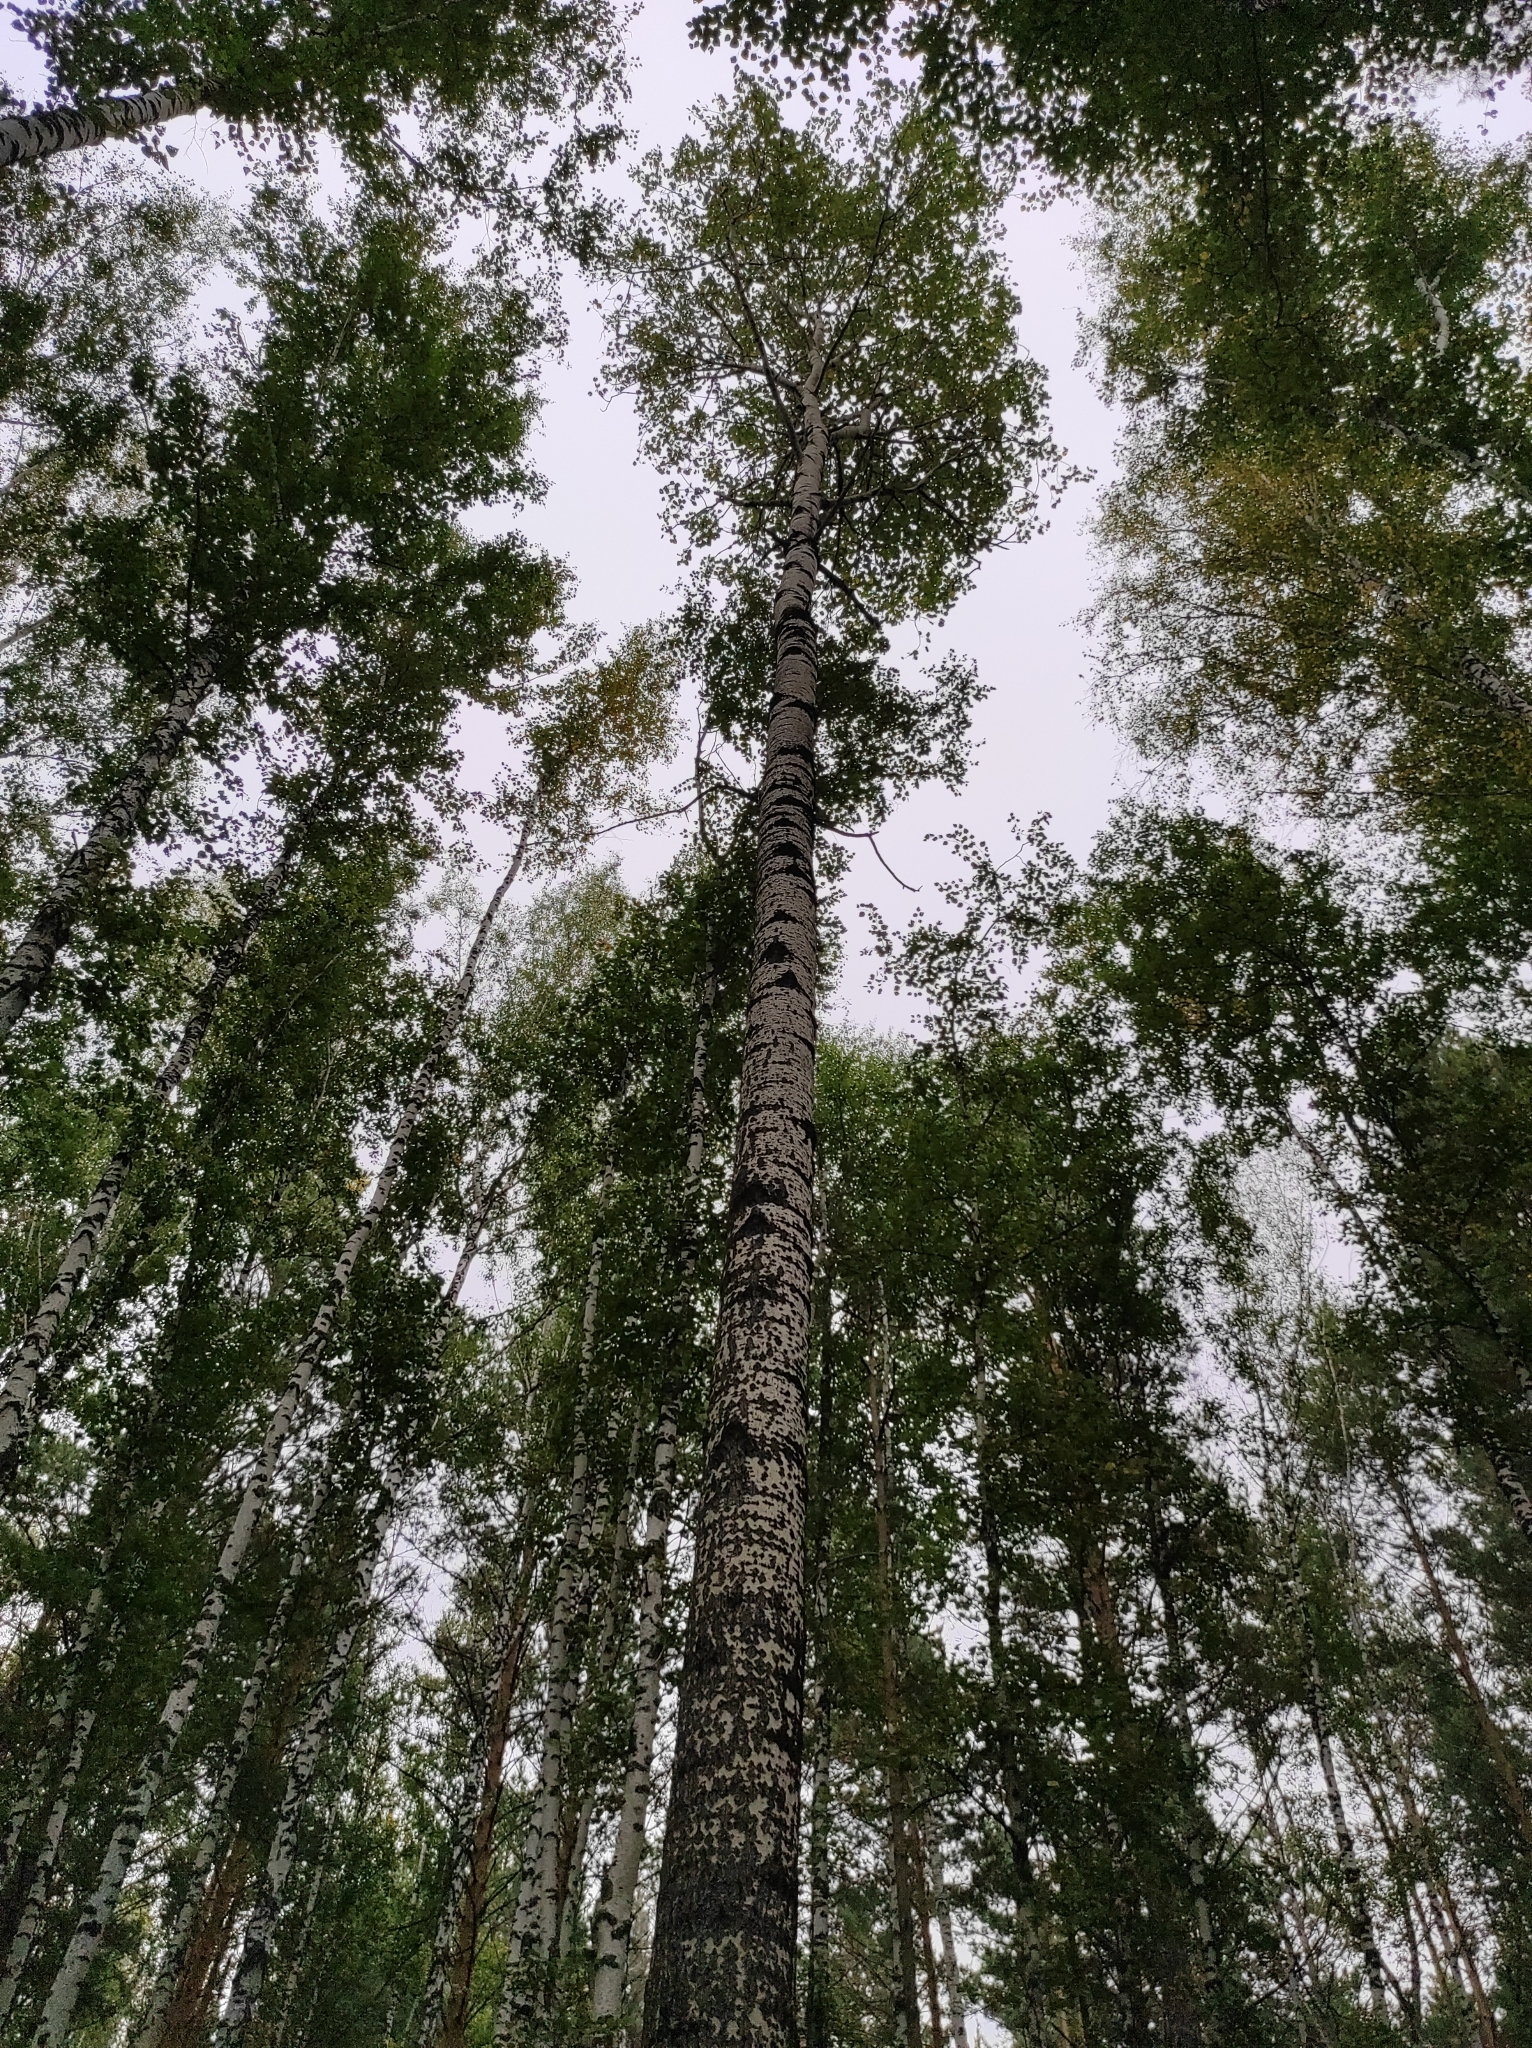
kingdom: Plantae
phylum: Tracheophyta
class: Magnoliopsida
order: Malpighiales
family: Salicaceae
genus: Populus
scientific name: Populus tremula
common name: European aspen
